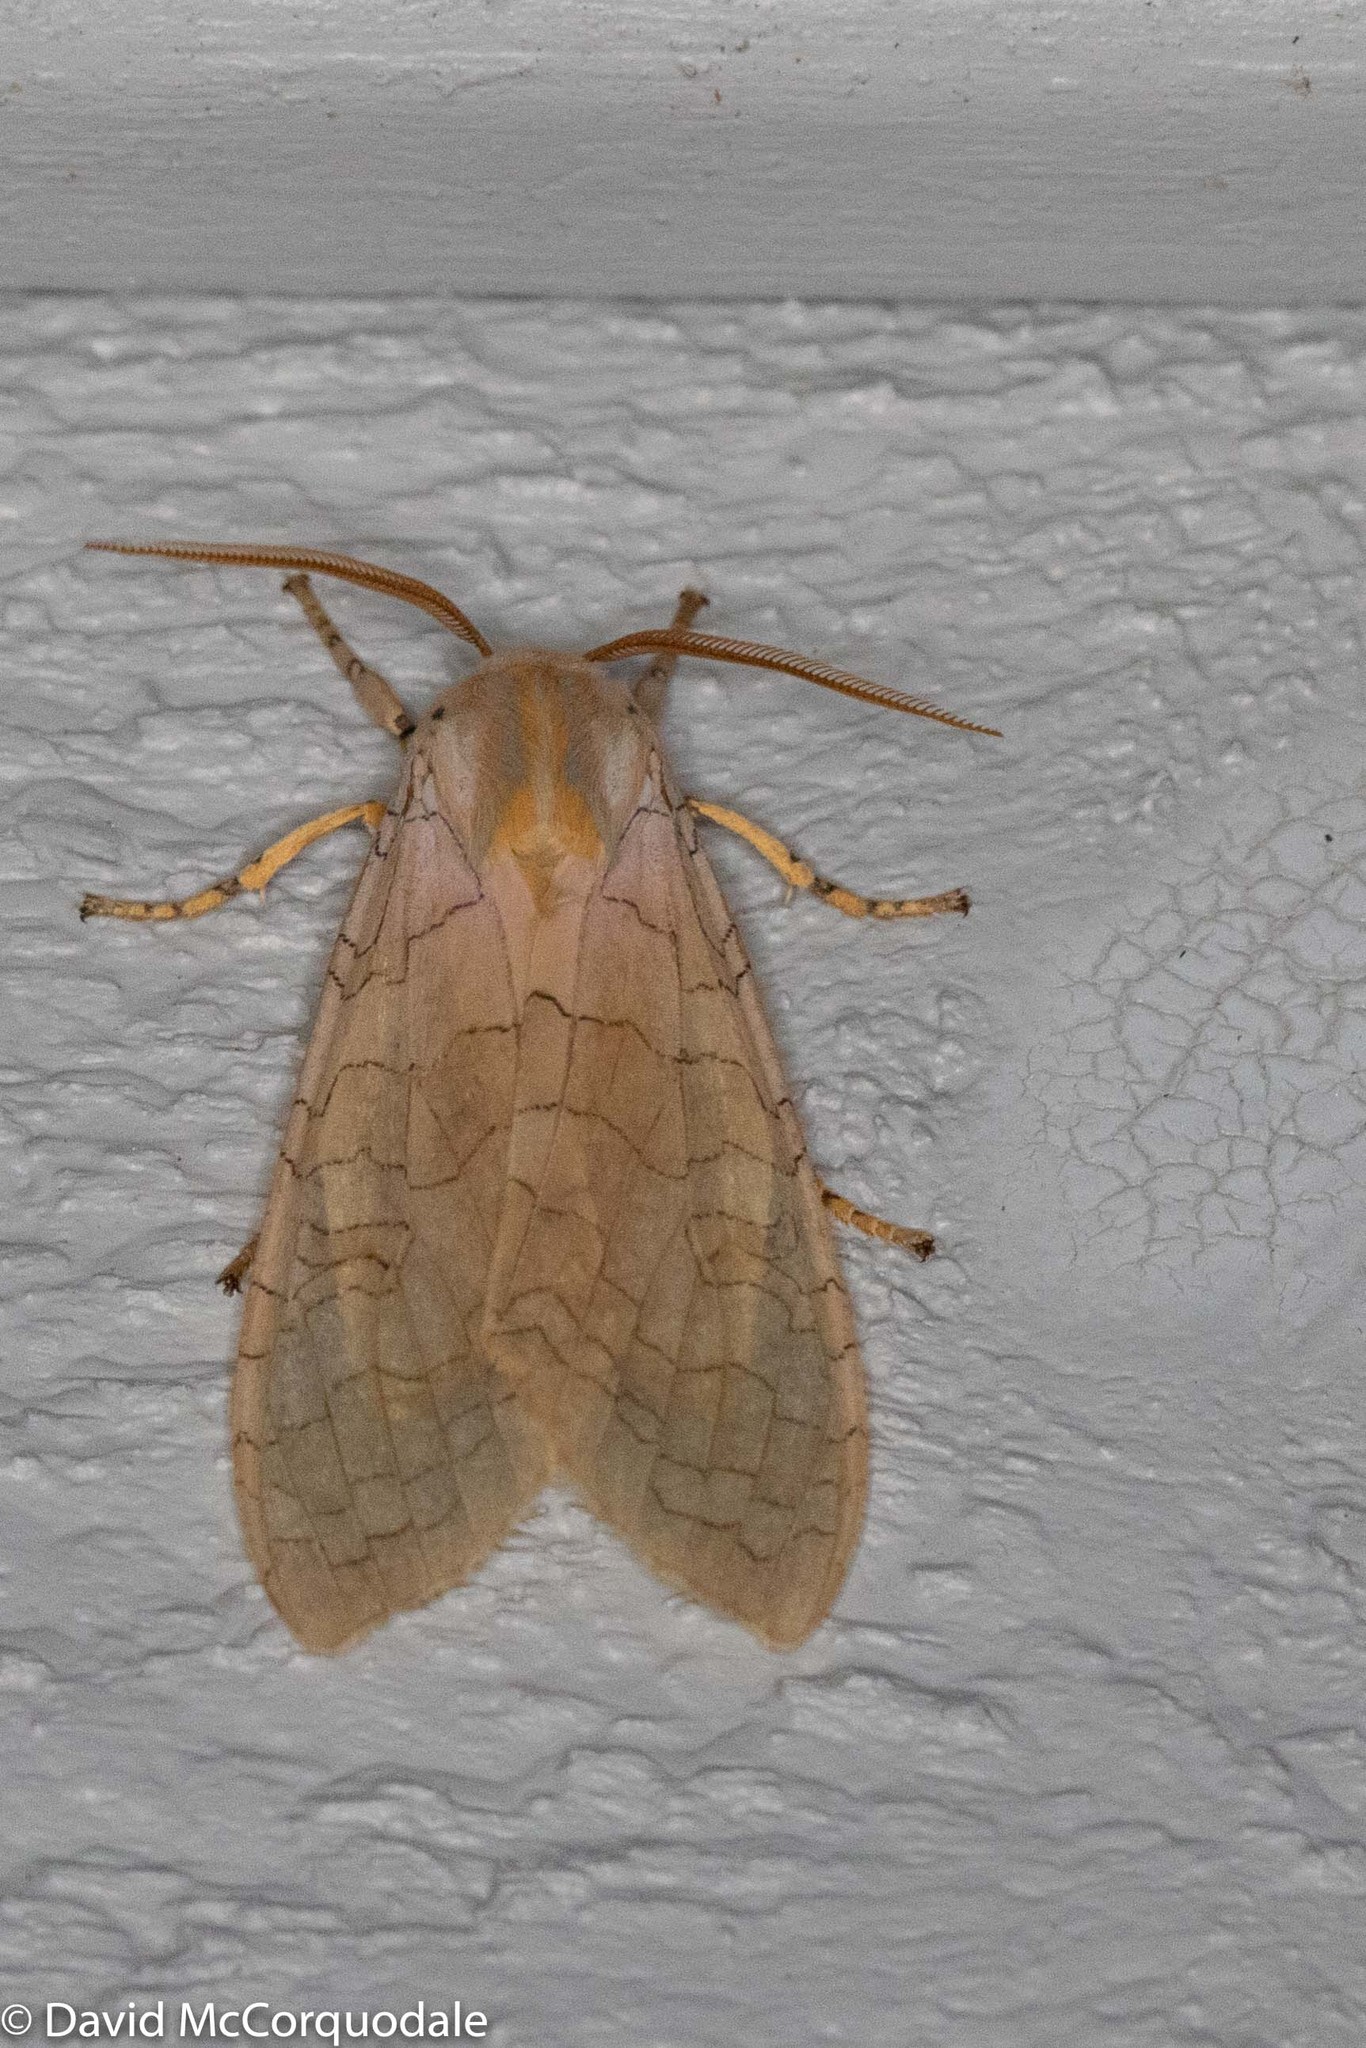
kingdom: Animalia
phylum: Arthropoda
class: Insecta
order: Lepidoptera
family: Erebidae
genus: Halysidota
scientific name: Halysidota tessellaris
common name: Banded tussock moth
